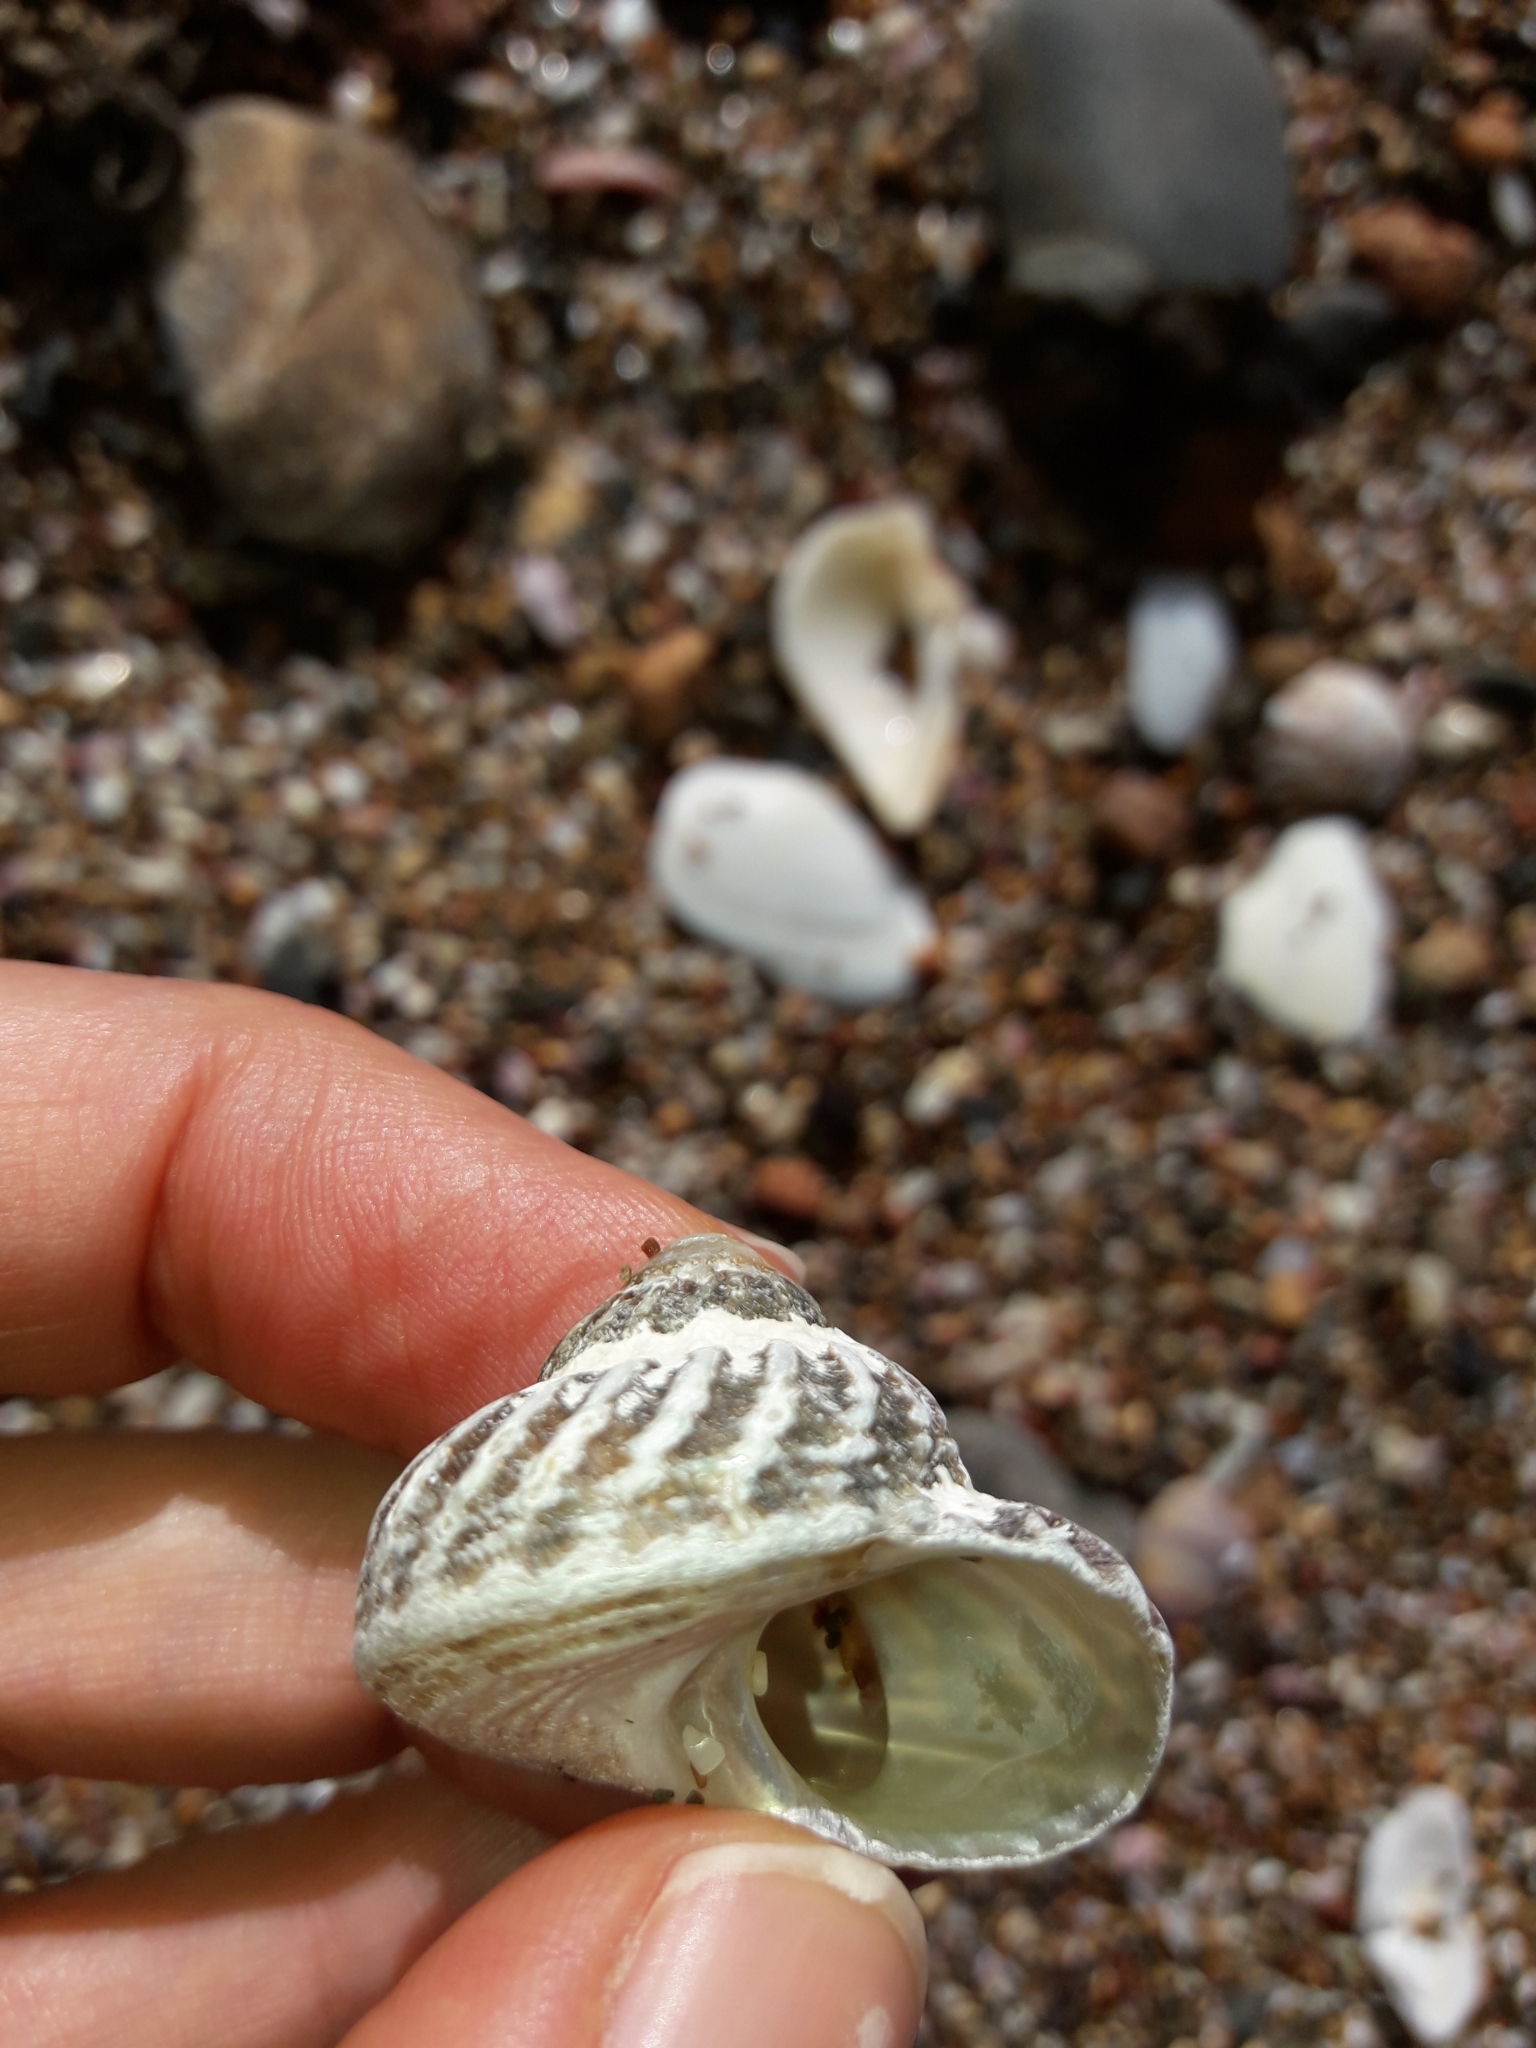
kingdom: Animalia
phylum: Mollusca
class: Gastropoda
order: Trochida
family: Turbinidae
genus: Cookia
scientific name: Cookia sulcata
